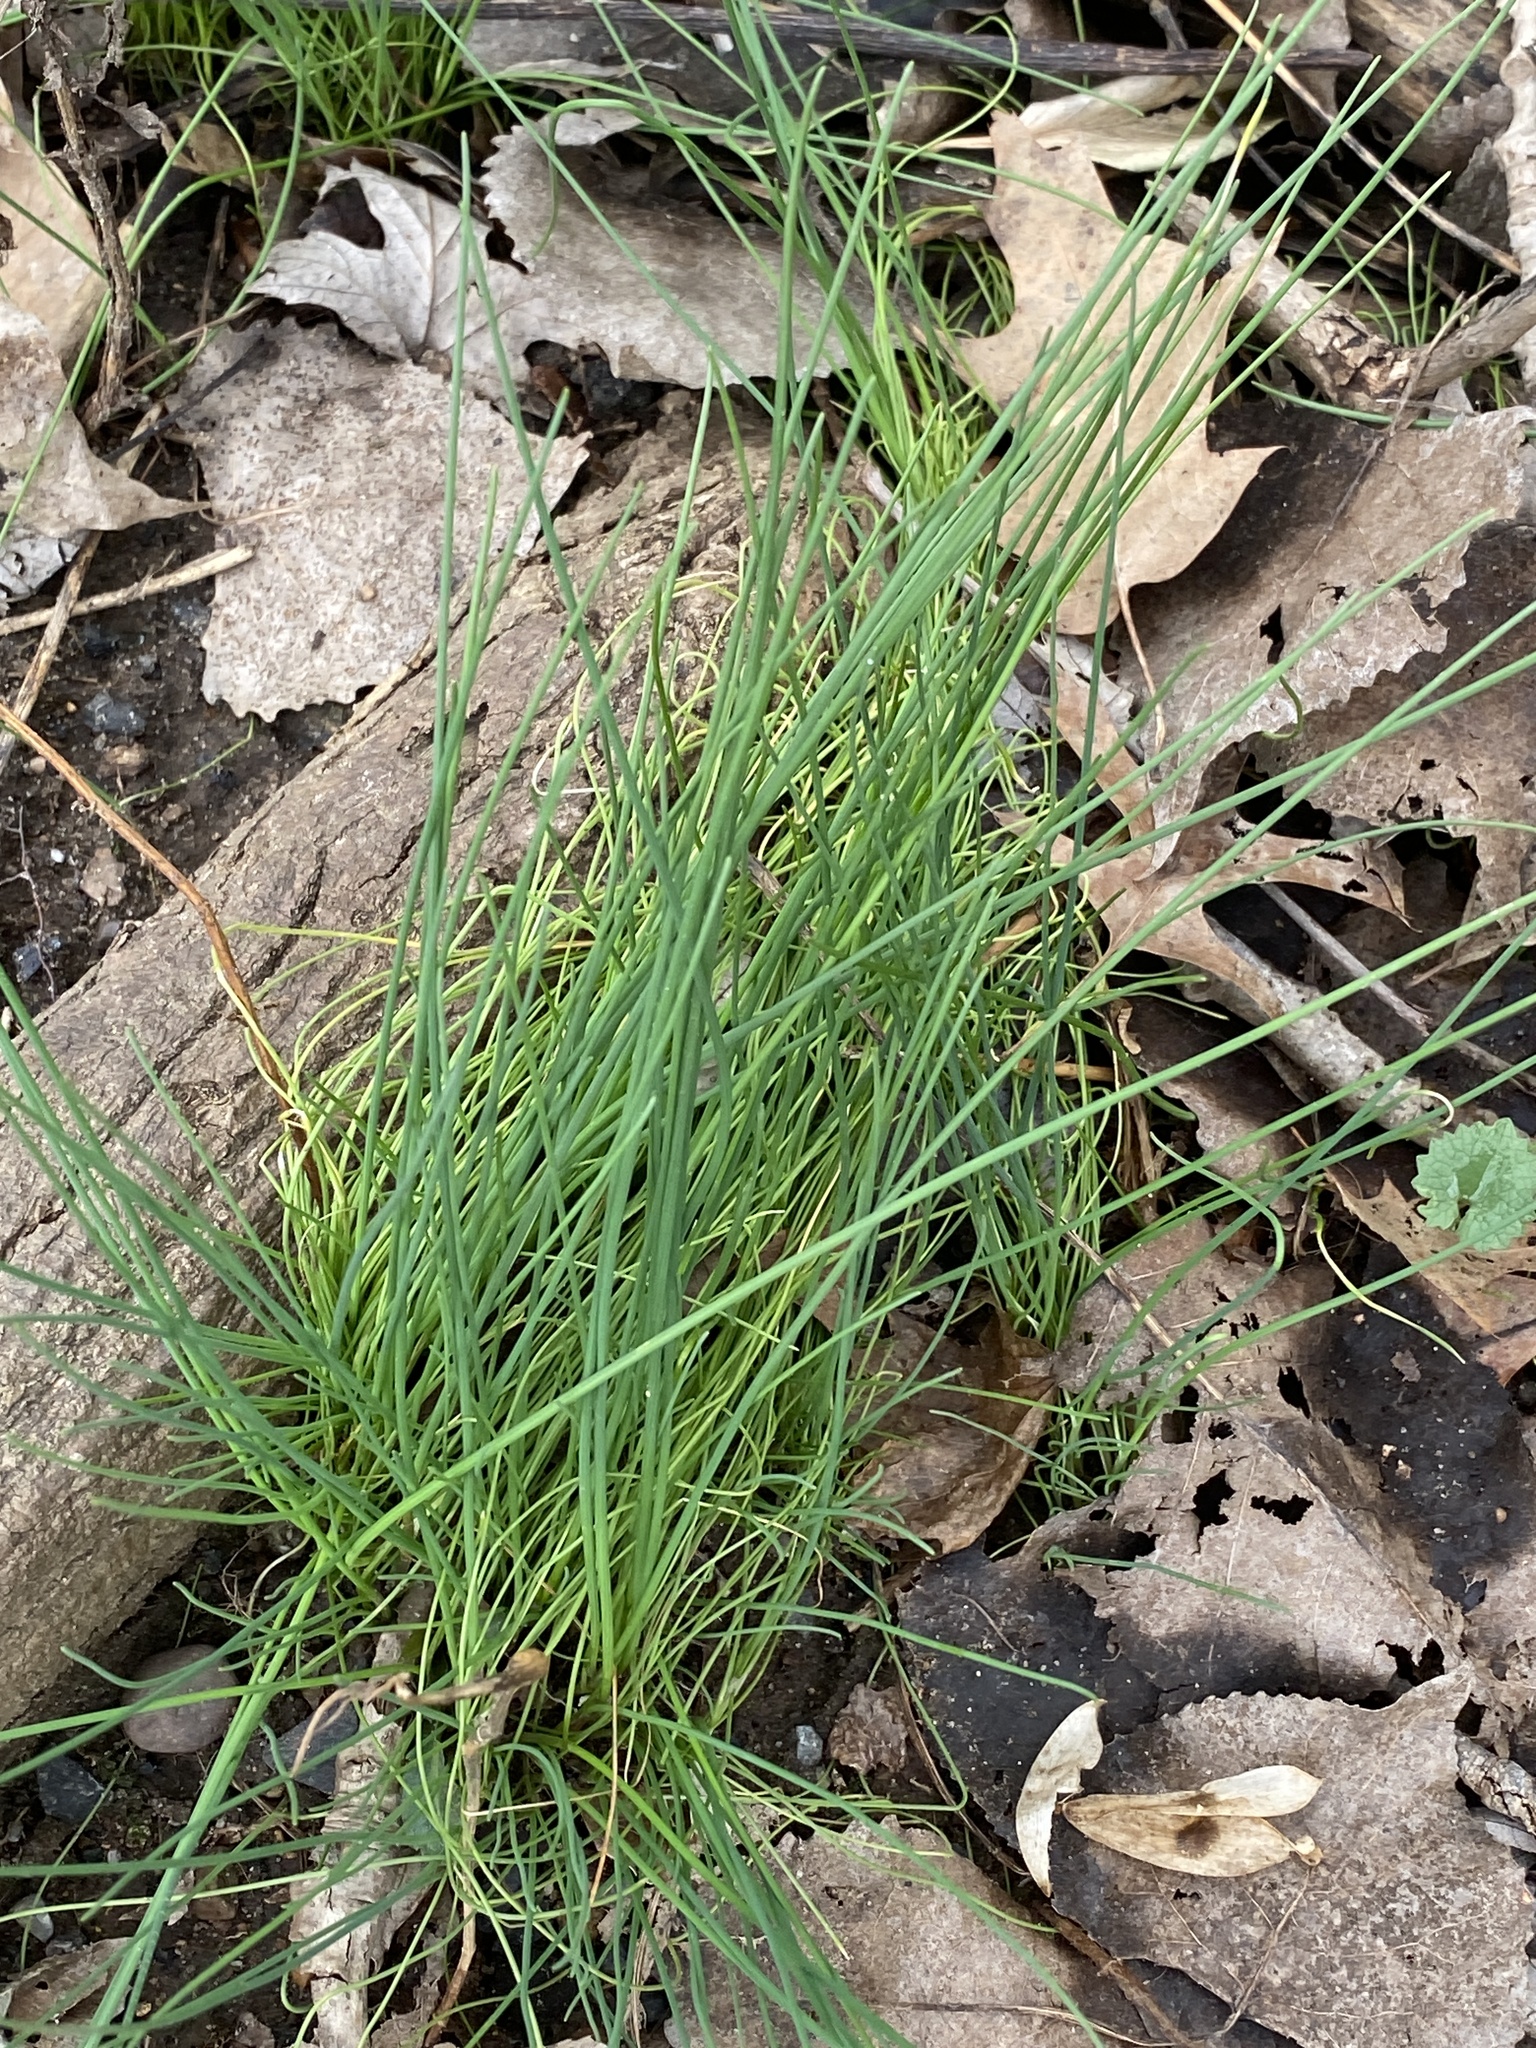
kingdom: Plantae
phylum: Tracheophyta
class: Liliopsida
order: Asparagales
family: Amaryllidaceae
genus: Allium
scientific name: Allium vineale
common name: Crow garlic
